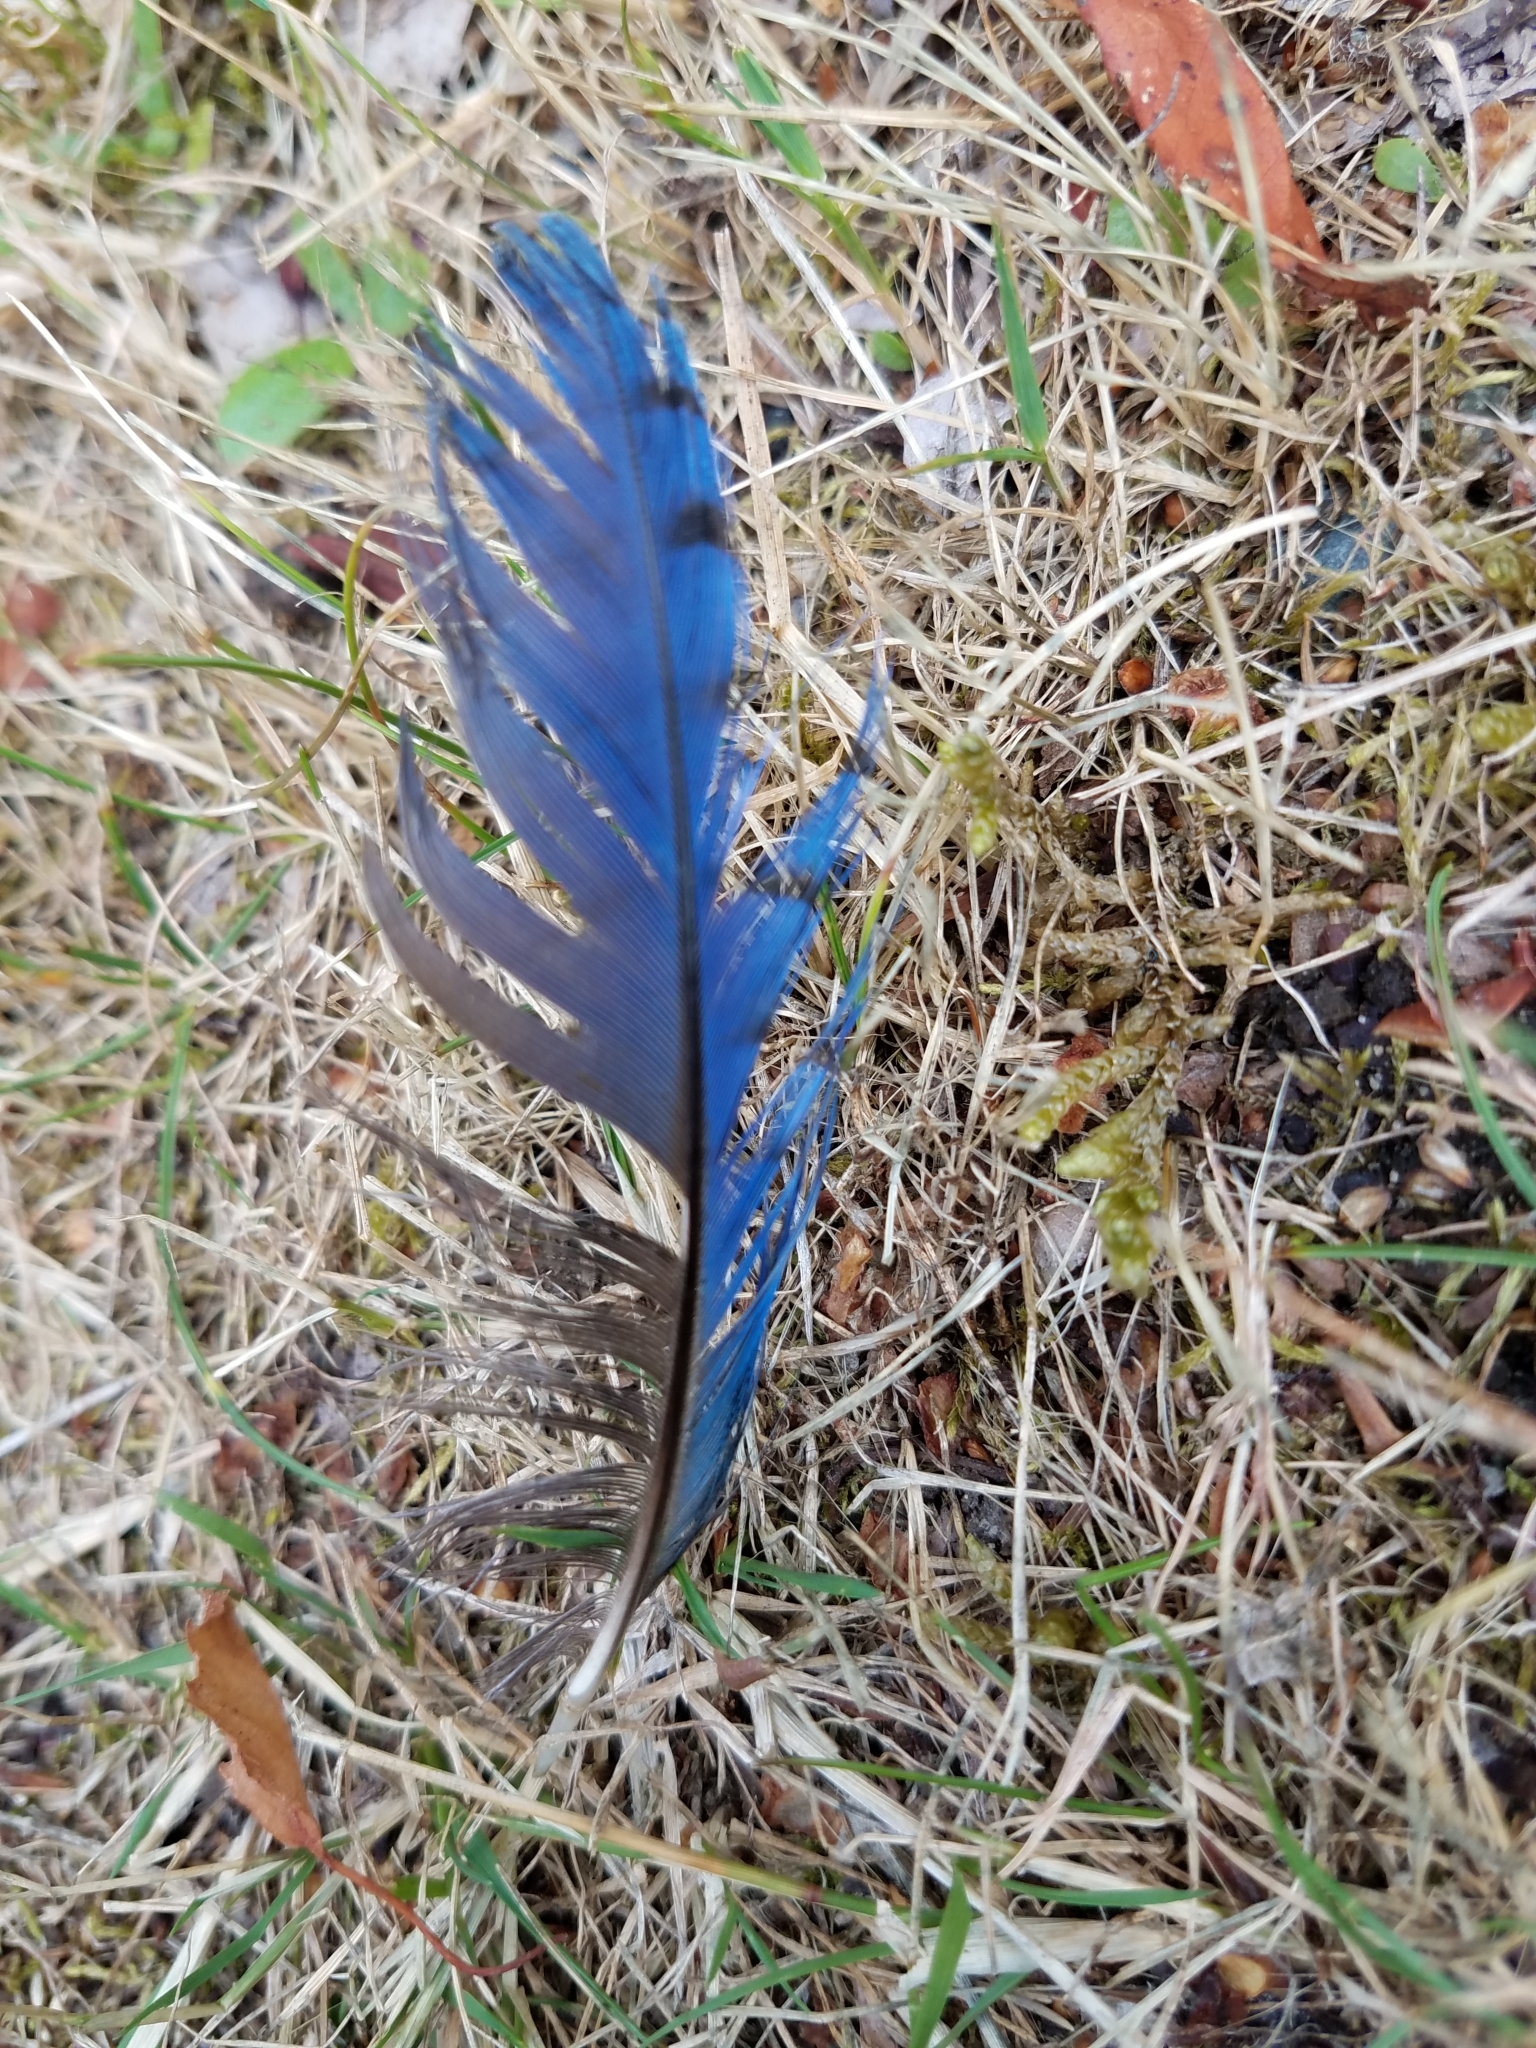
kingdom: Animalia
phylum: Chordata
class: Aves
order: Passeriformes
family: Corvidae
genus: Cyanocitta
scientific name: Cyanocitta stelleri
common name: Steller's jay
